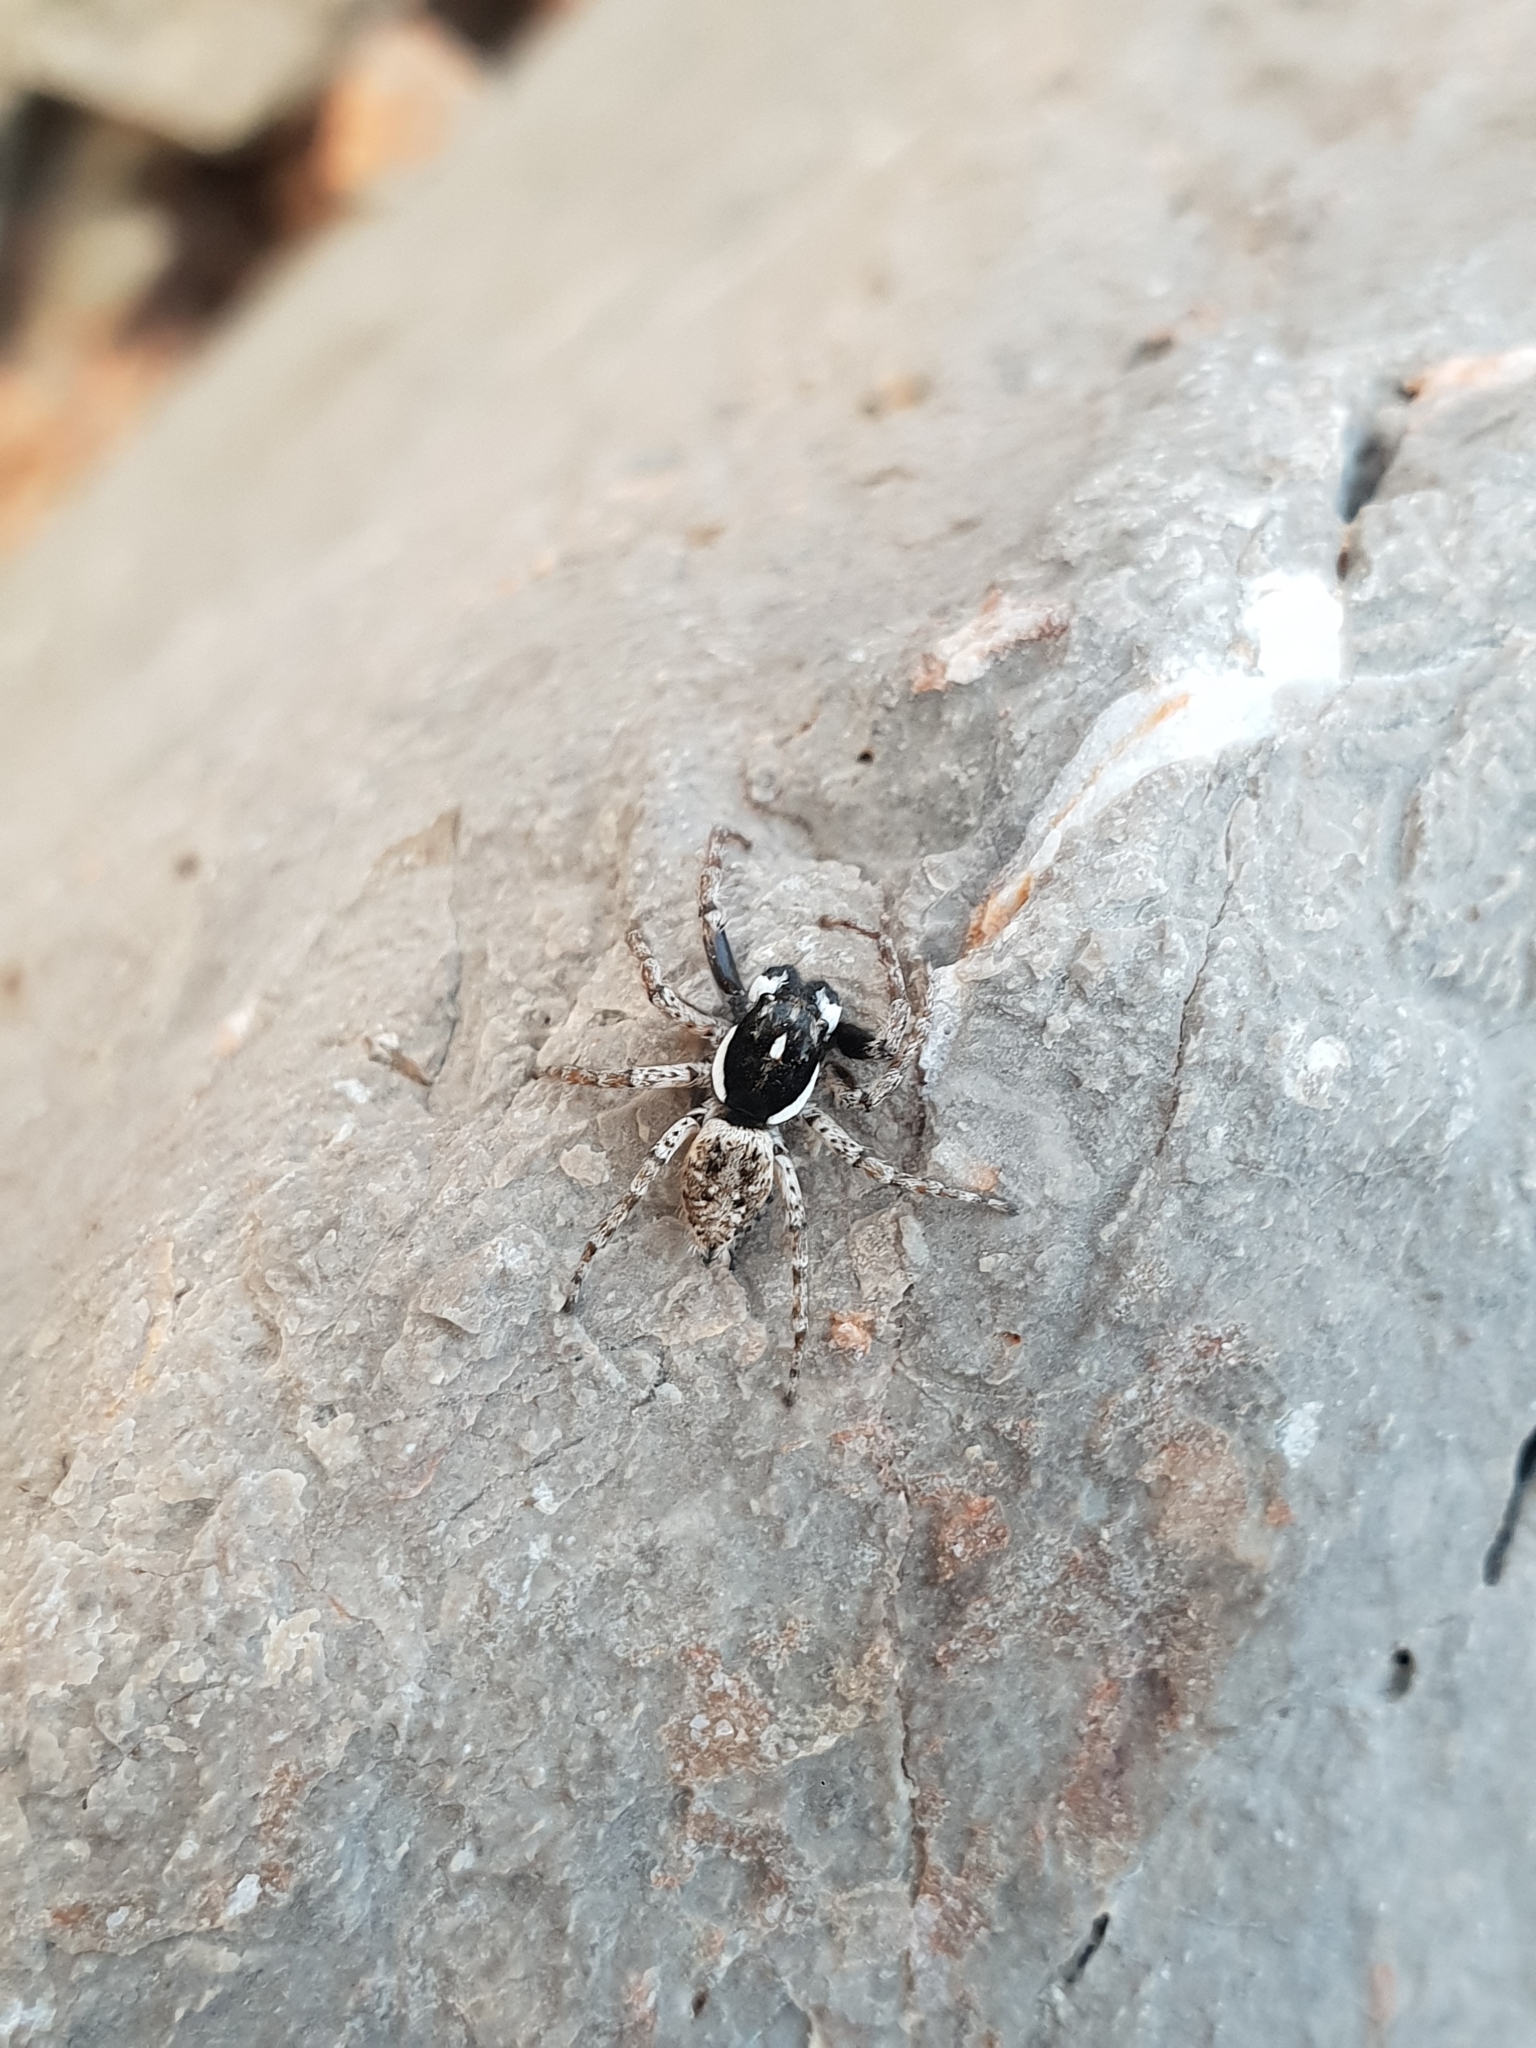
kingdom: Animalia
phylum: Arthropoda
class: Arachnida
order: Araneae
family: Salticidae
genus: Menemerus
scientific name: Menemerus semilimbatus
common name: Jumping spider
